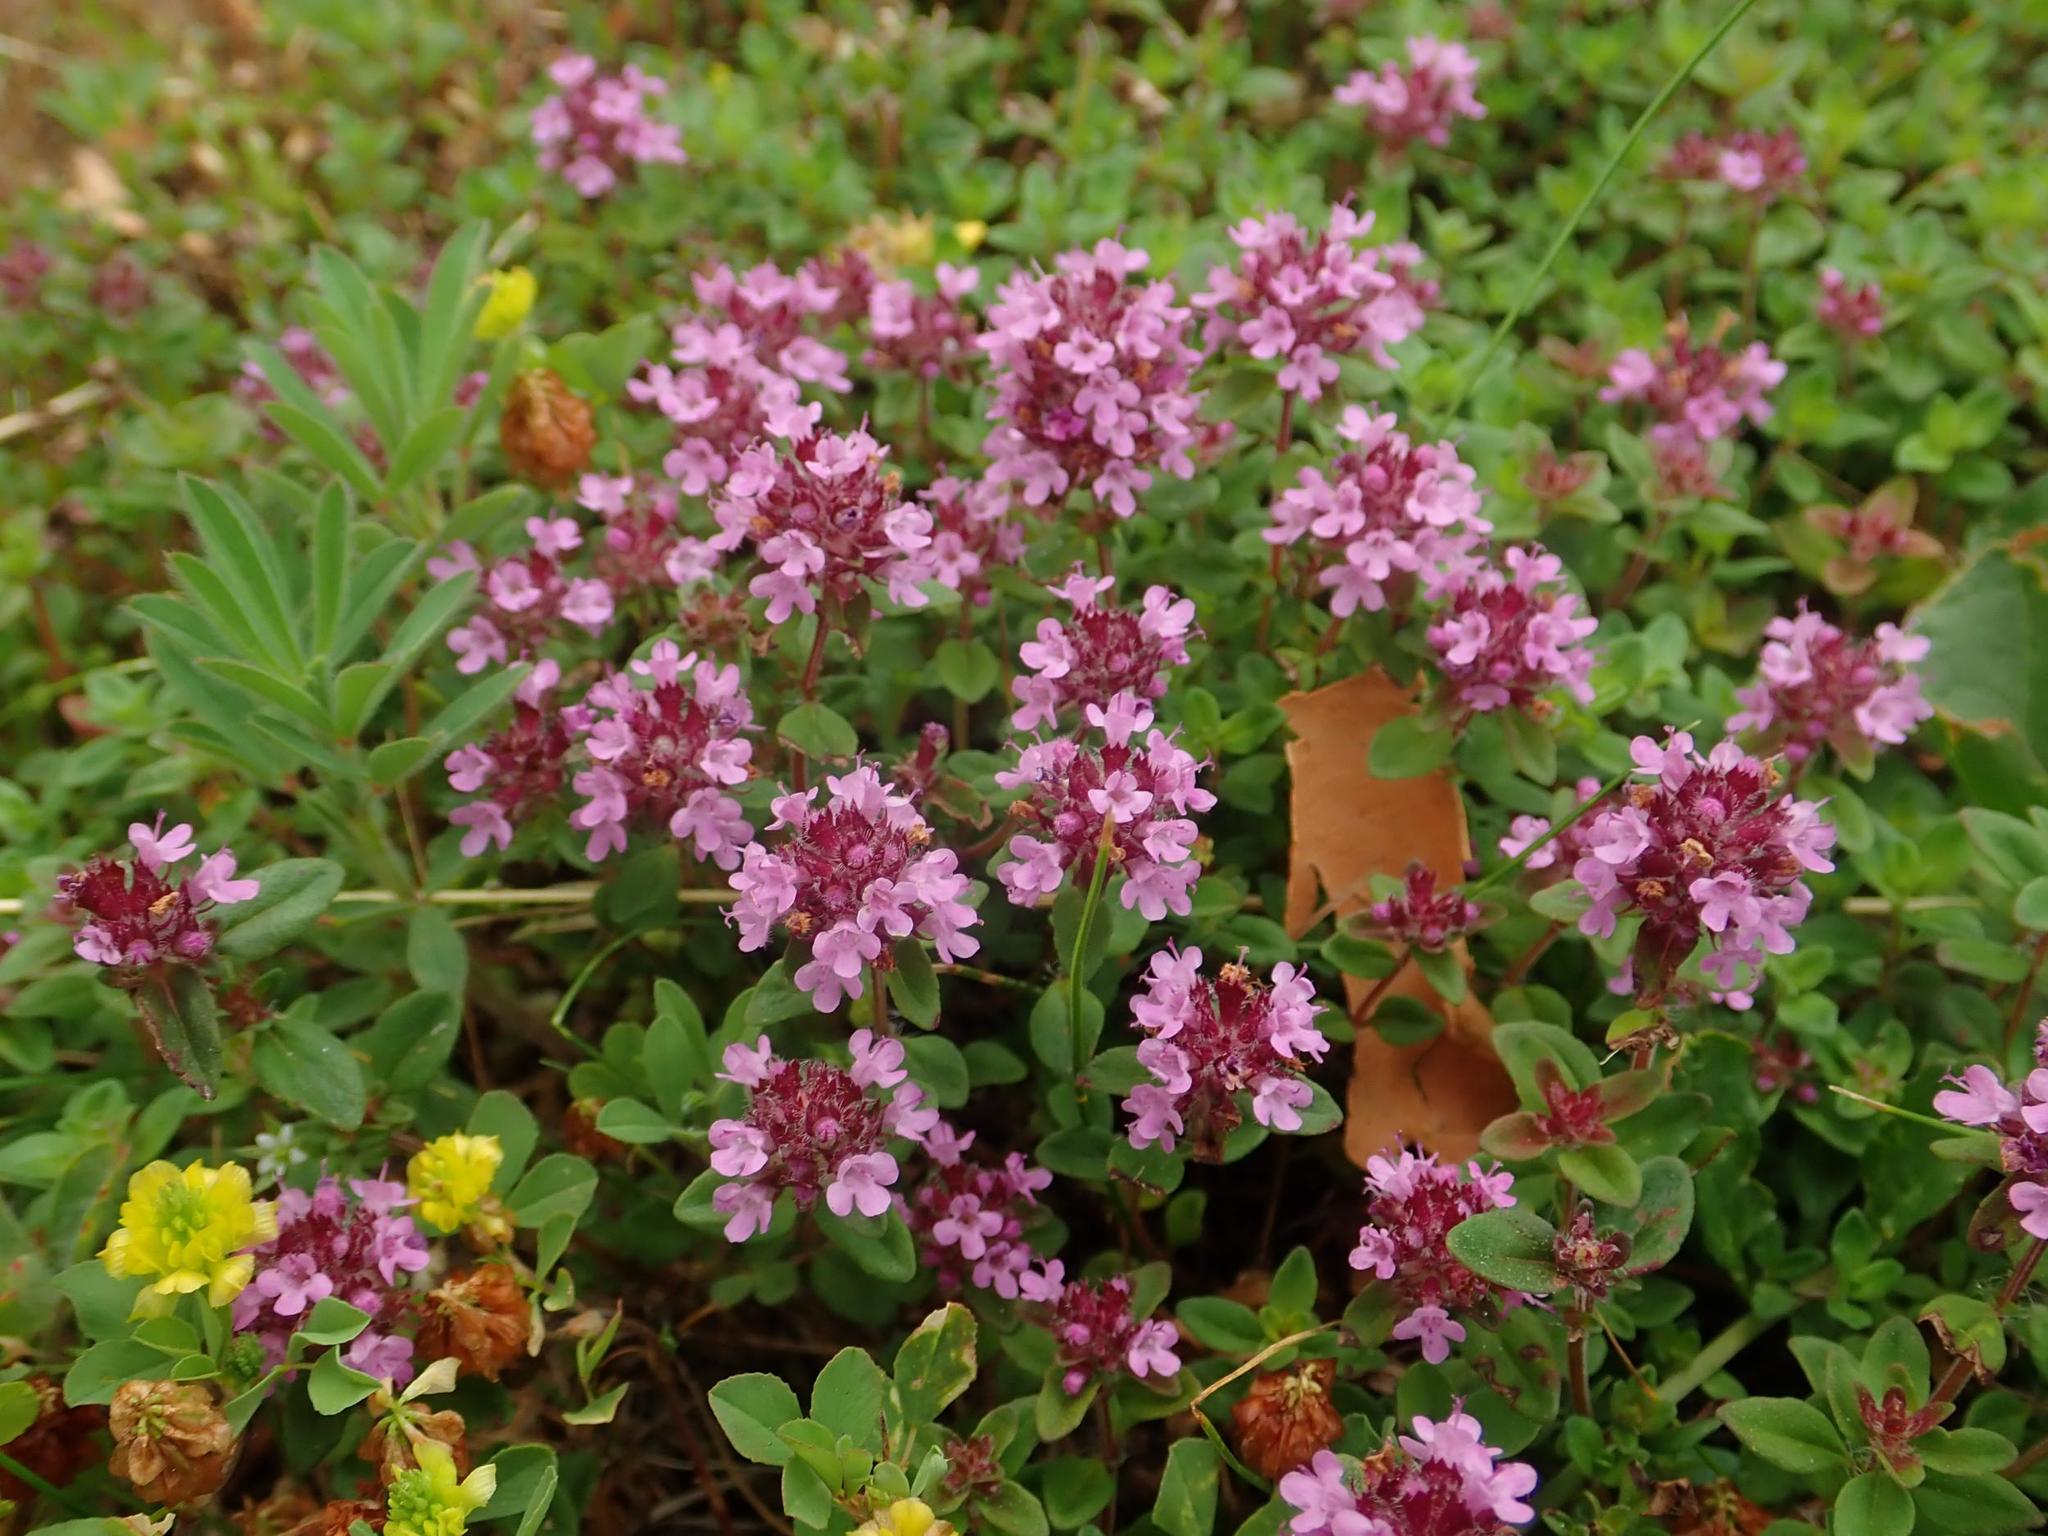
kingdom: Plantae
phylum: Tracheophyta
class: Magnoliopsida
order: Lamiales
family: Lamiaceae
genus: Thymus
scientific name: Thymus pulegioides
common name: Large thyme
